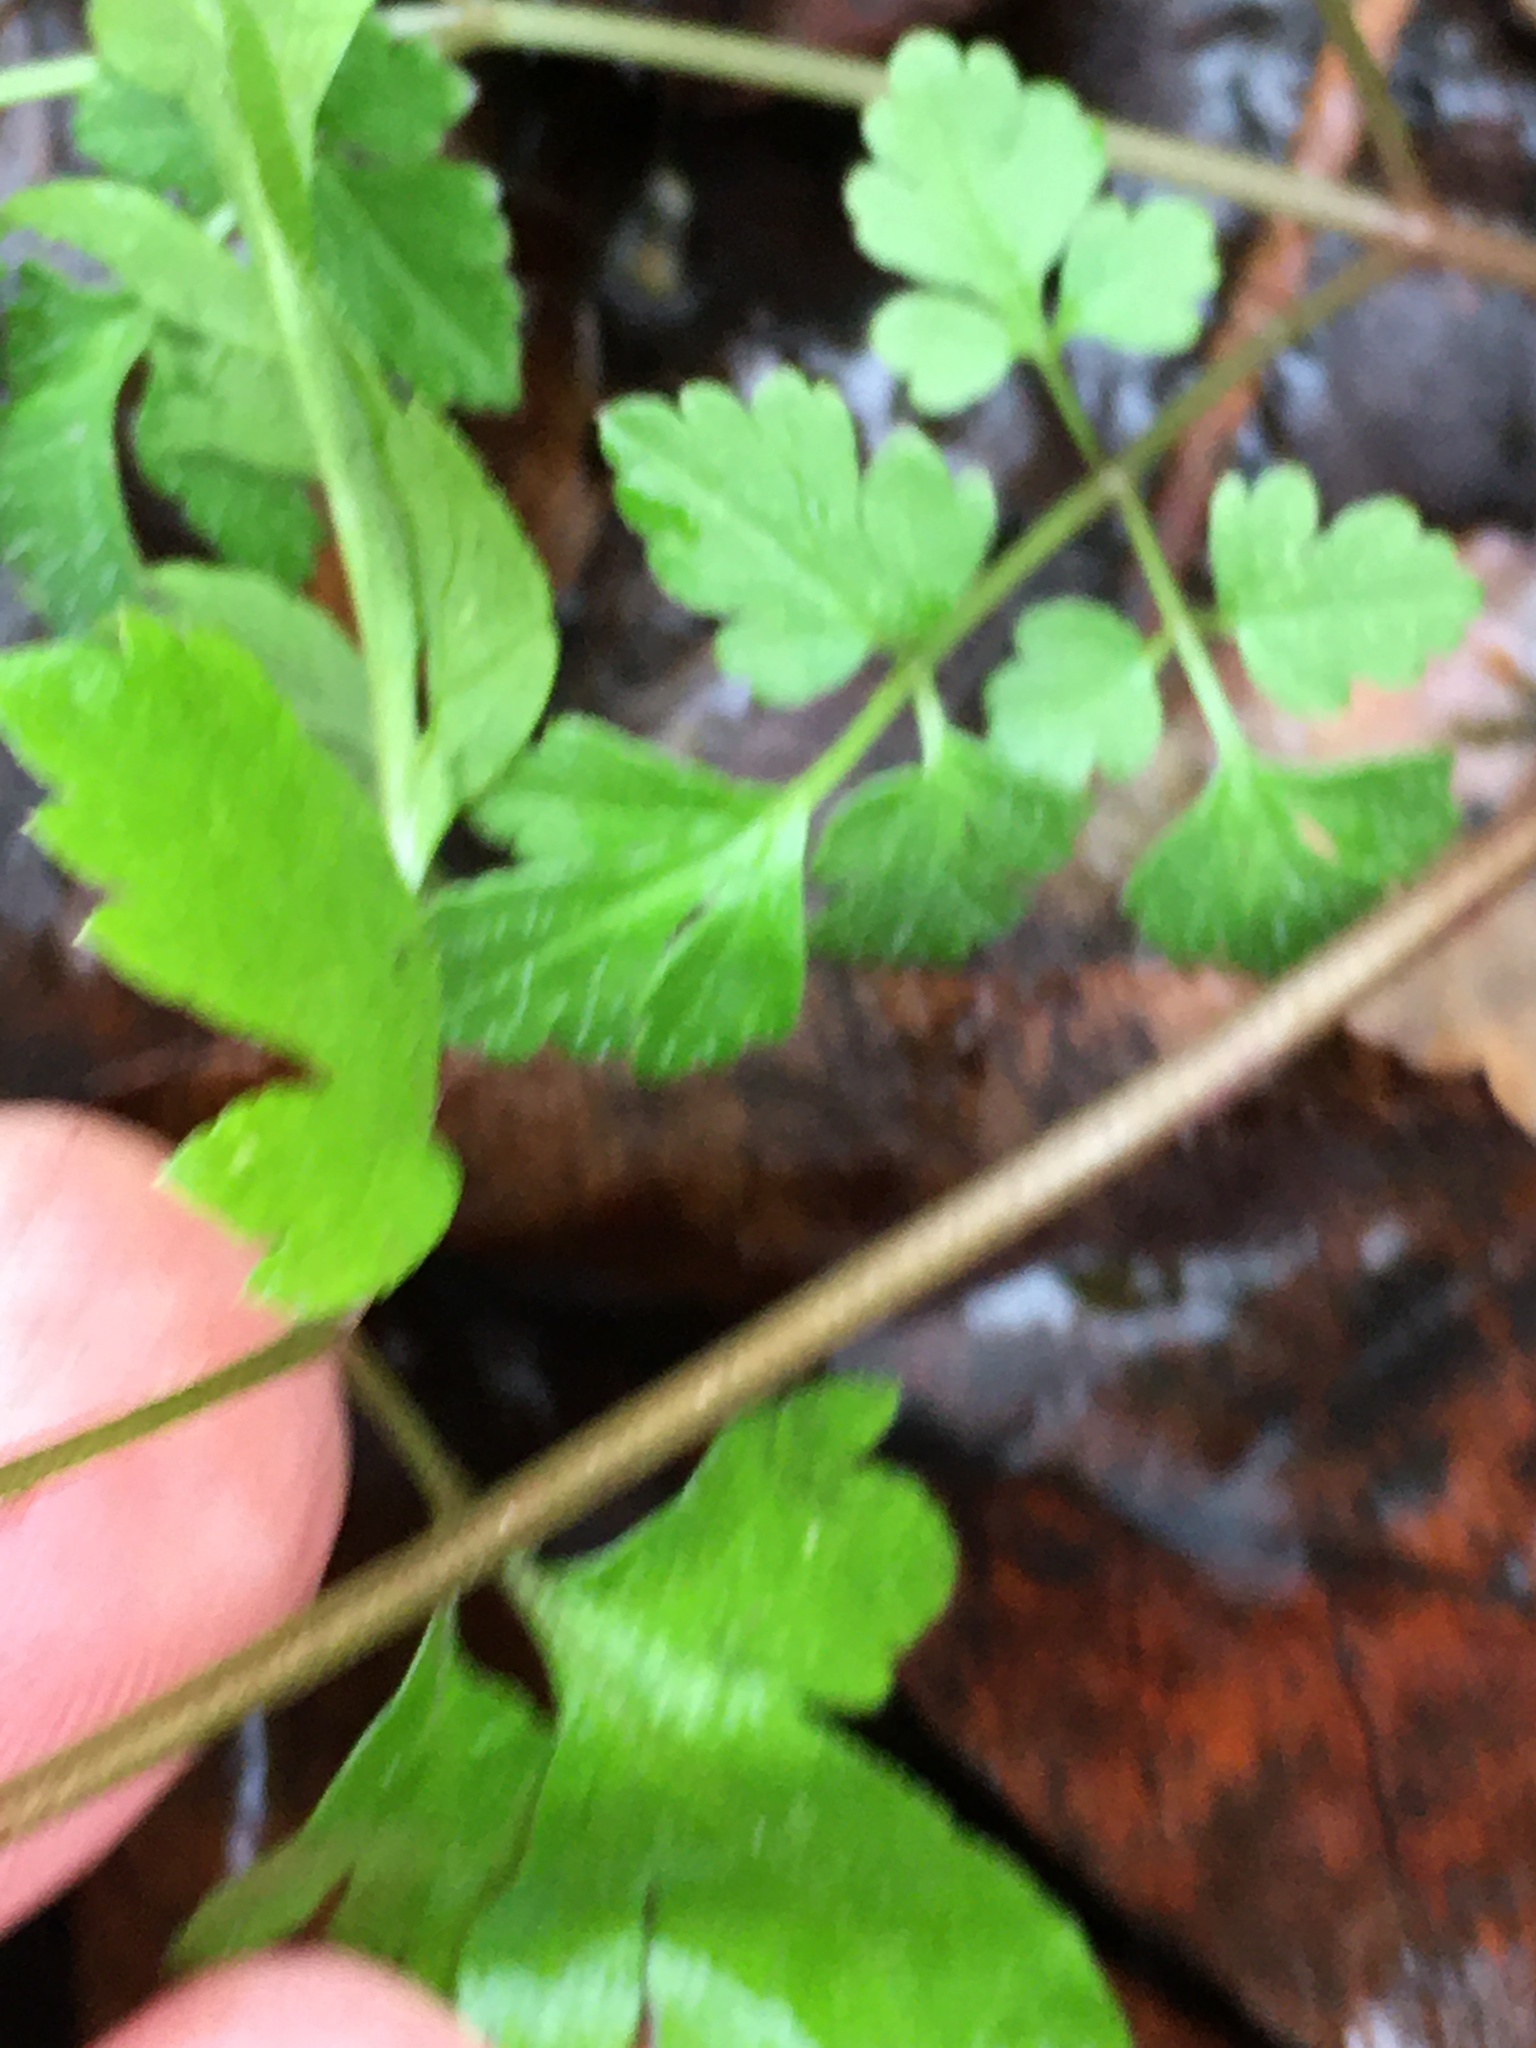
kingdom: Plantae
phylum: Tracheophyta
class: Magnoliopsida
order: Apiales
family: Apiaceae
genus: Osmorhiza
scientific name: Osmorhiza longistylis
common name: Smooth sweet cicely
